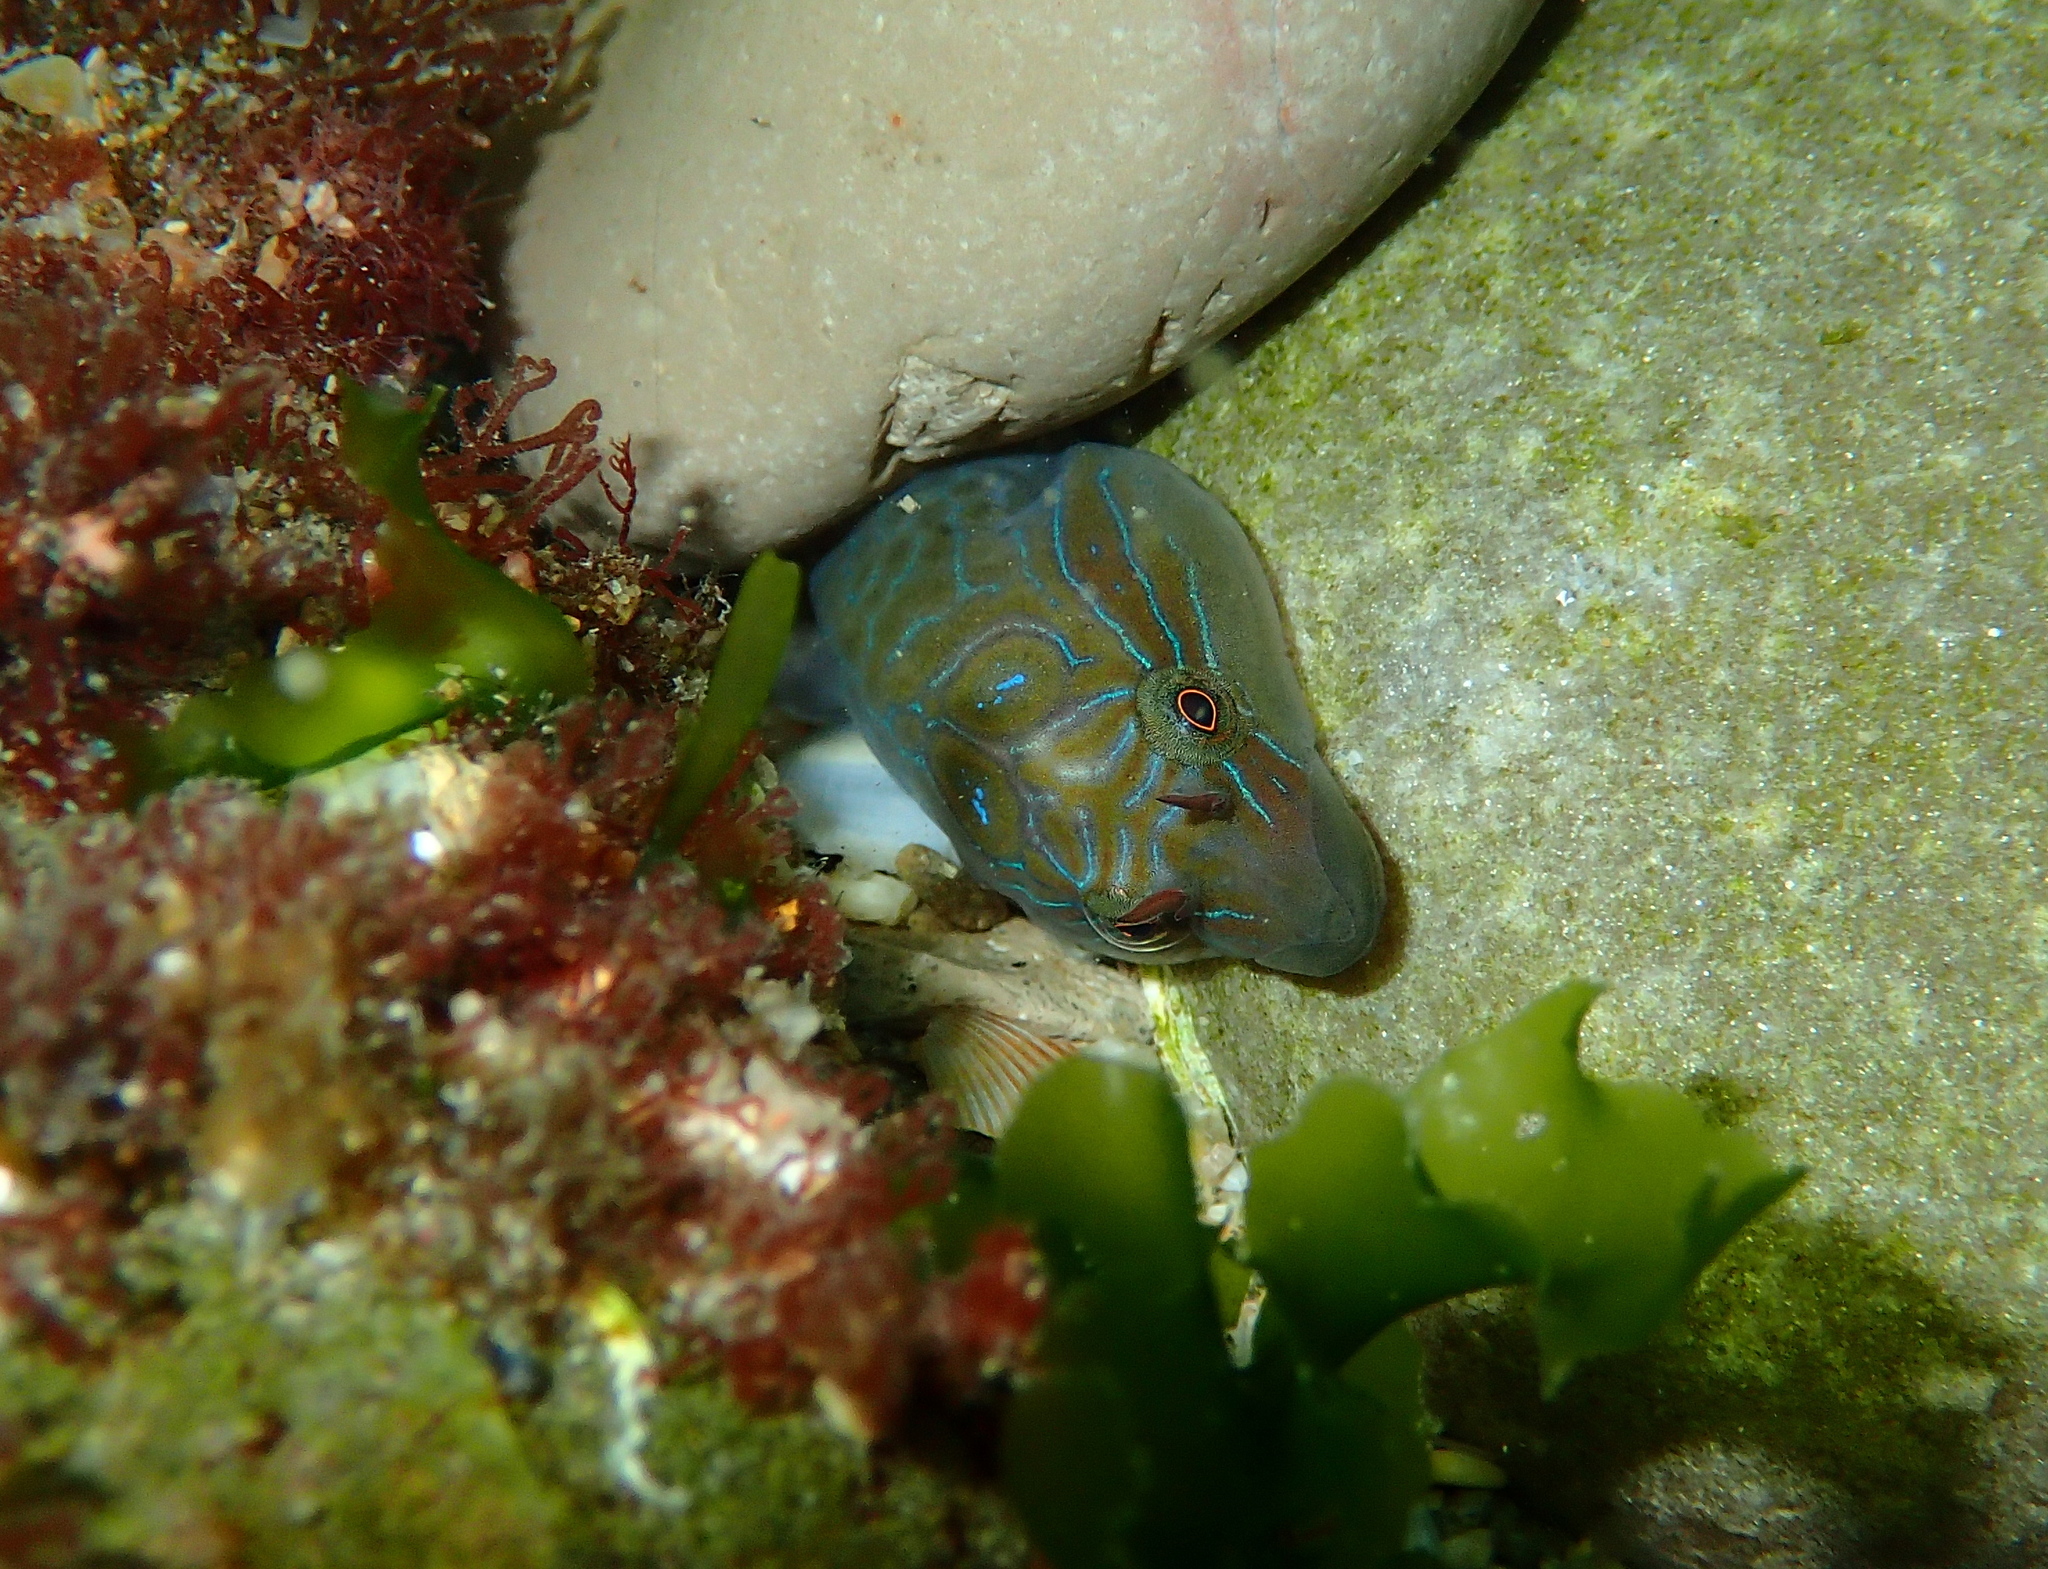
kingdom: Animalia
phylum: Chordata
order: Gobiesociformes
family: Gobiesocidae
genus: Lepadogaster
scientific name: Lepadogaster lepadogaster
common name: Cornish sucker
